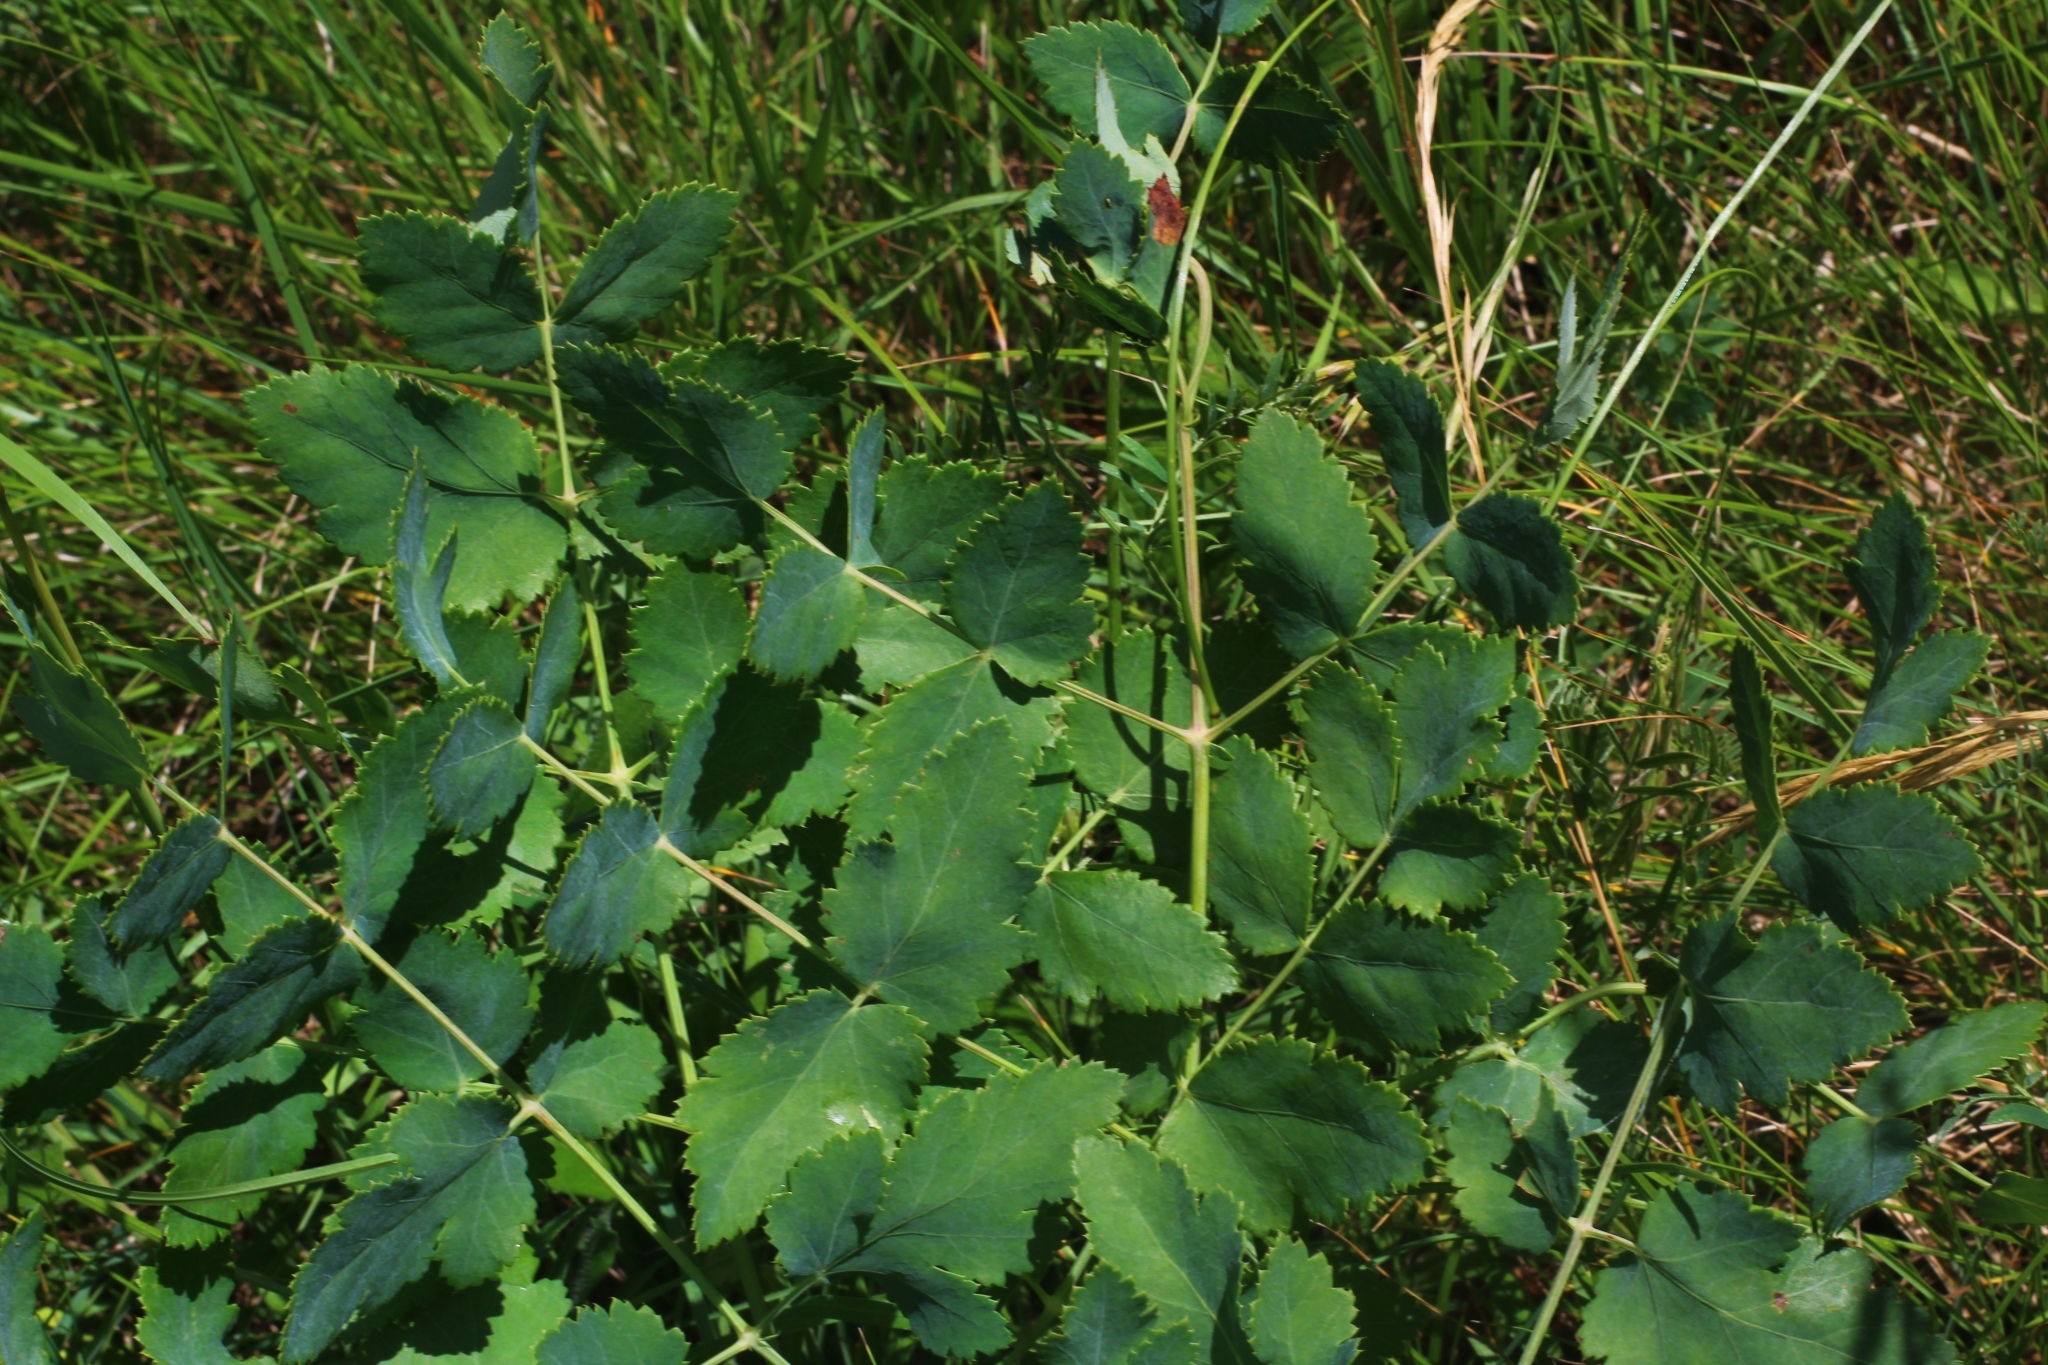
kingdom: Plantae
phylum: Tracheophyta
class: Magnoliopsida
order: Apiales
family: Apiaceae
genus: Cervaria
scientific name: Cervaria rivini
